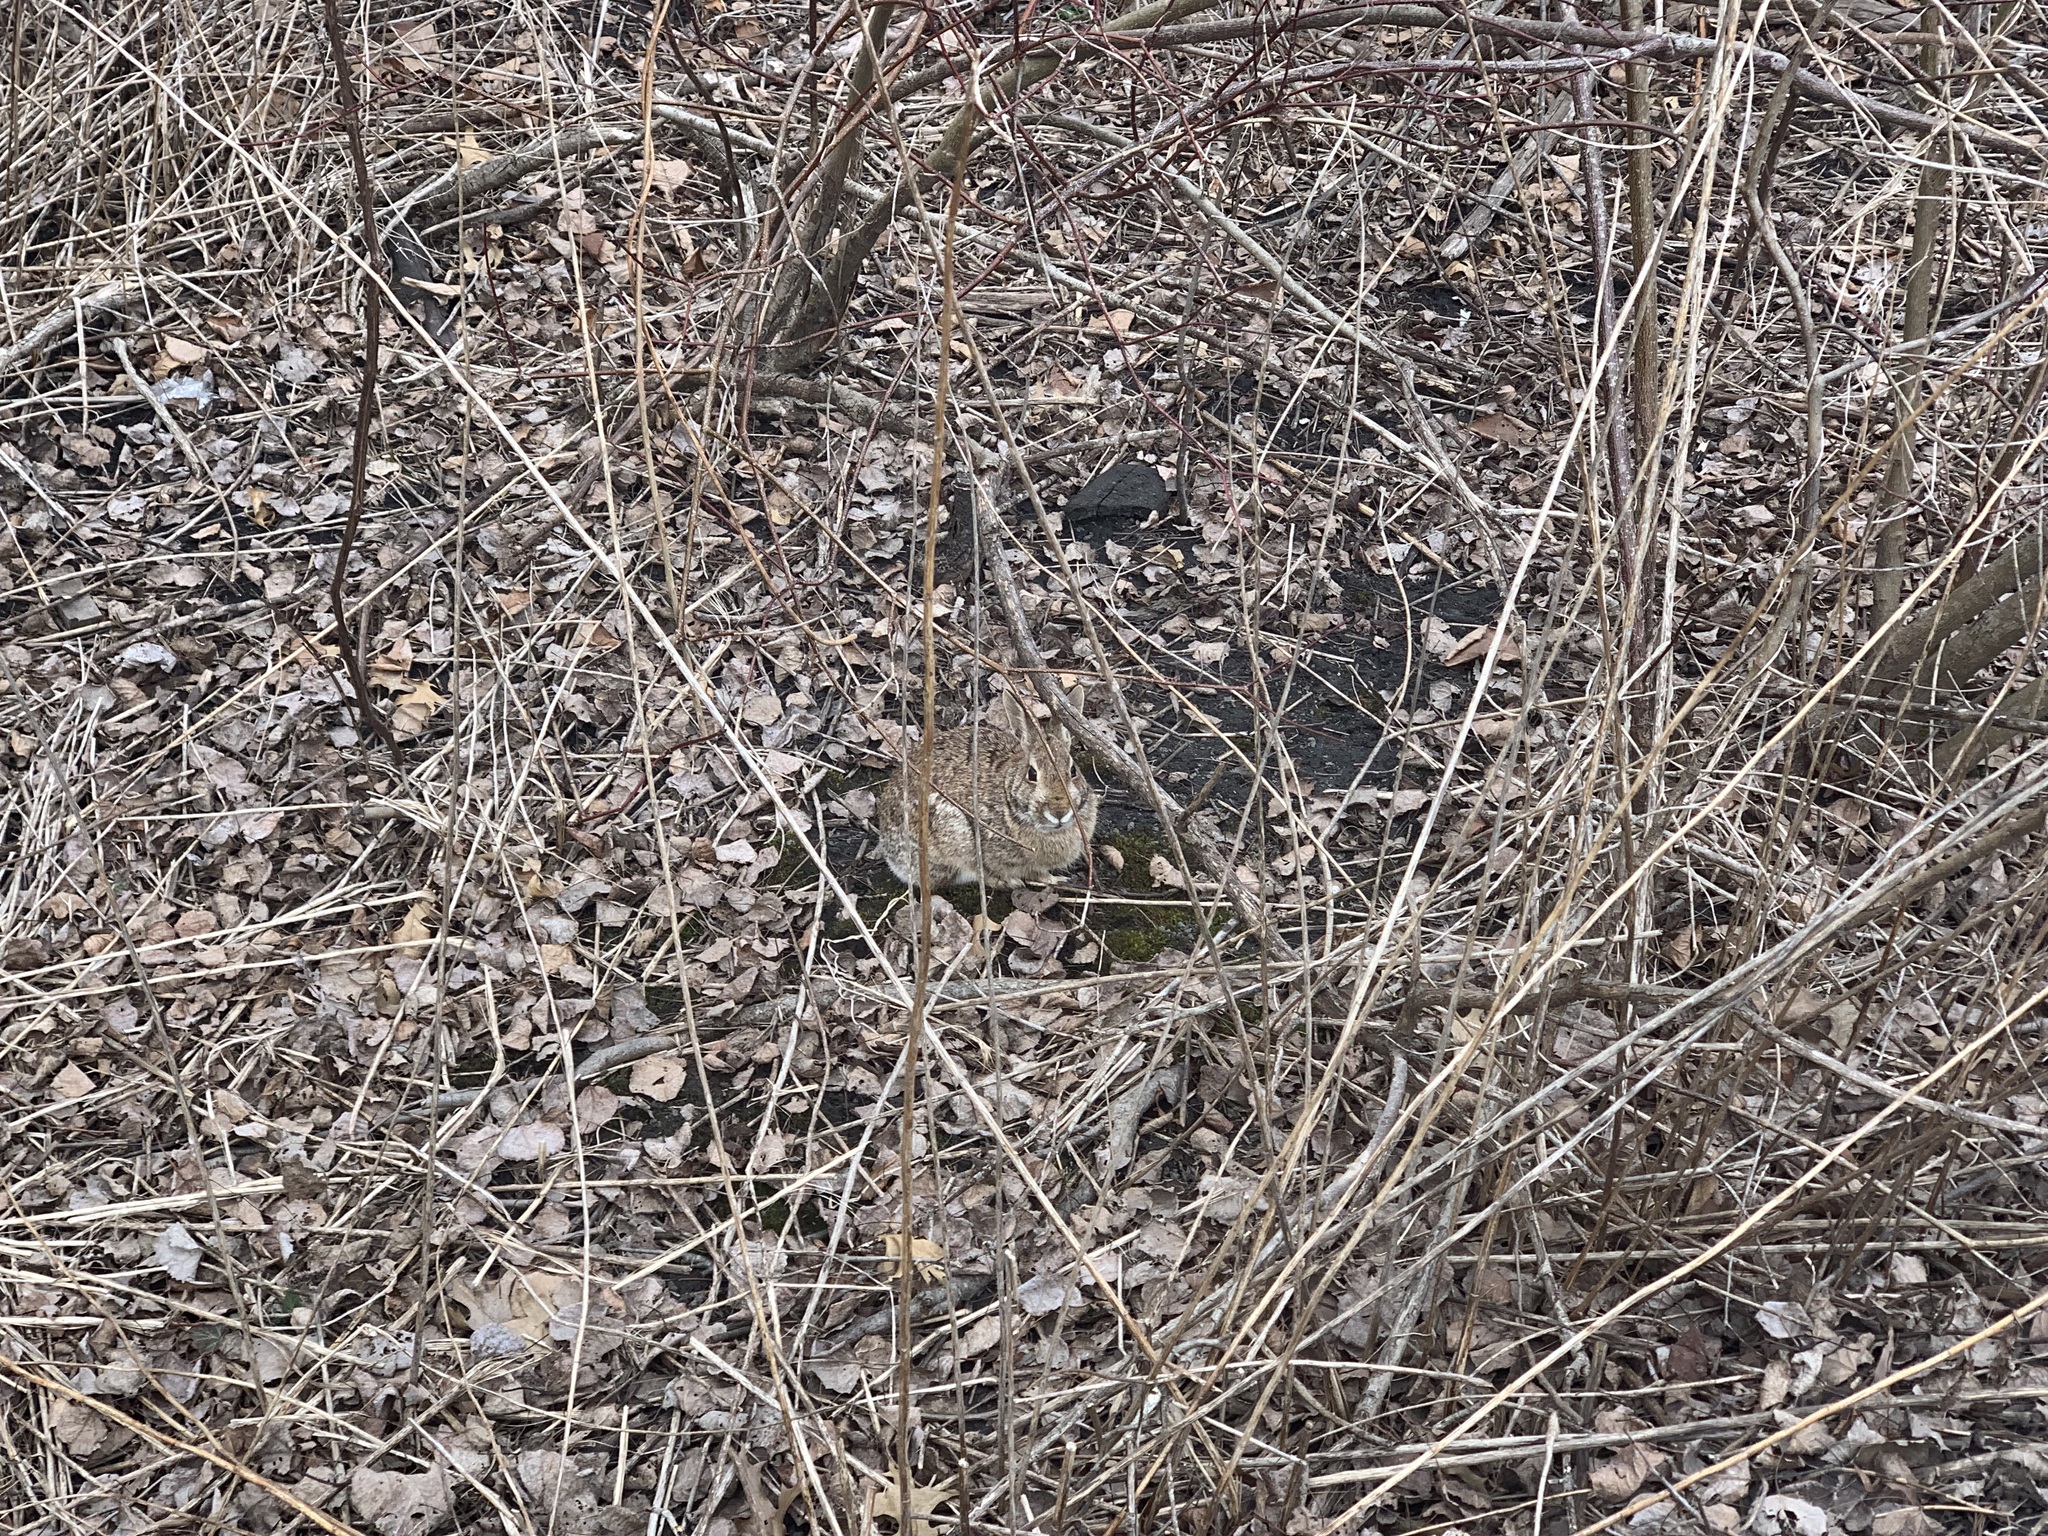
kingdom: Animalia
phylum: Chordata
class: Mammalia
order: Lagomorpha
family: Leporidae
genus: Sylvilagus
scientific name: Sylvilagus floridanus
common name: Eastern cottontail
